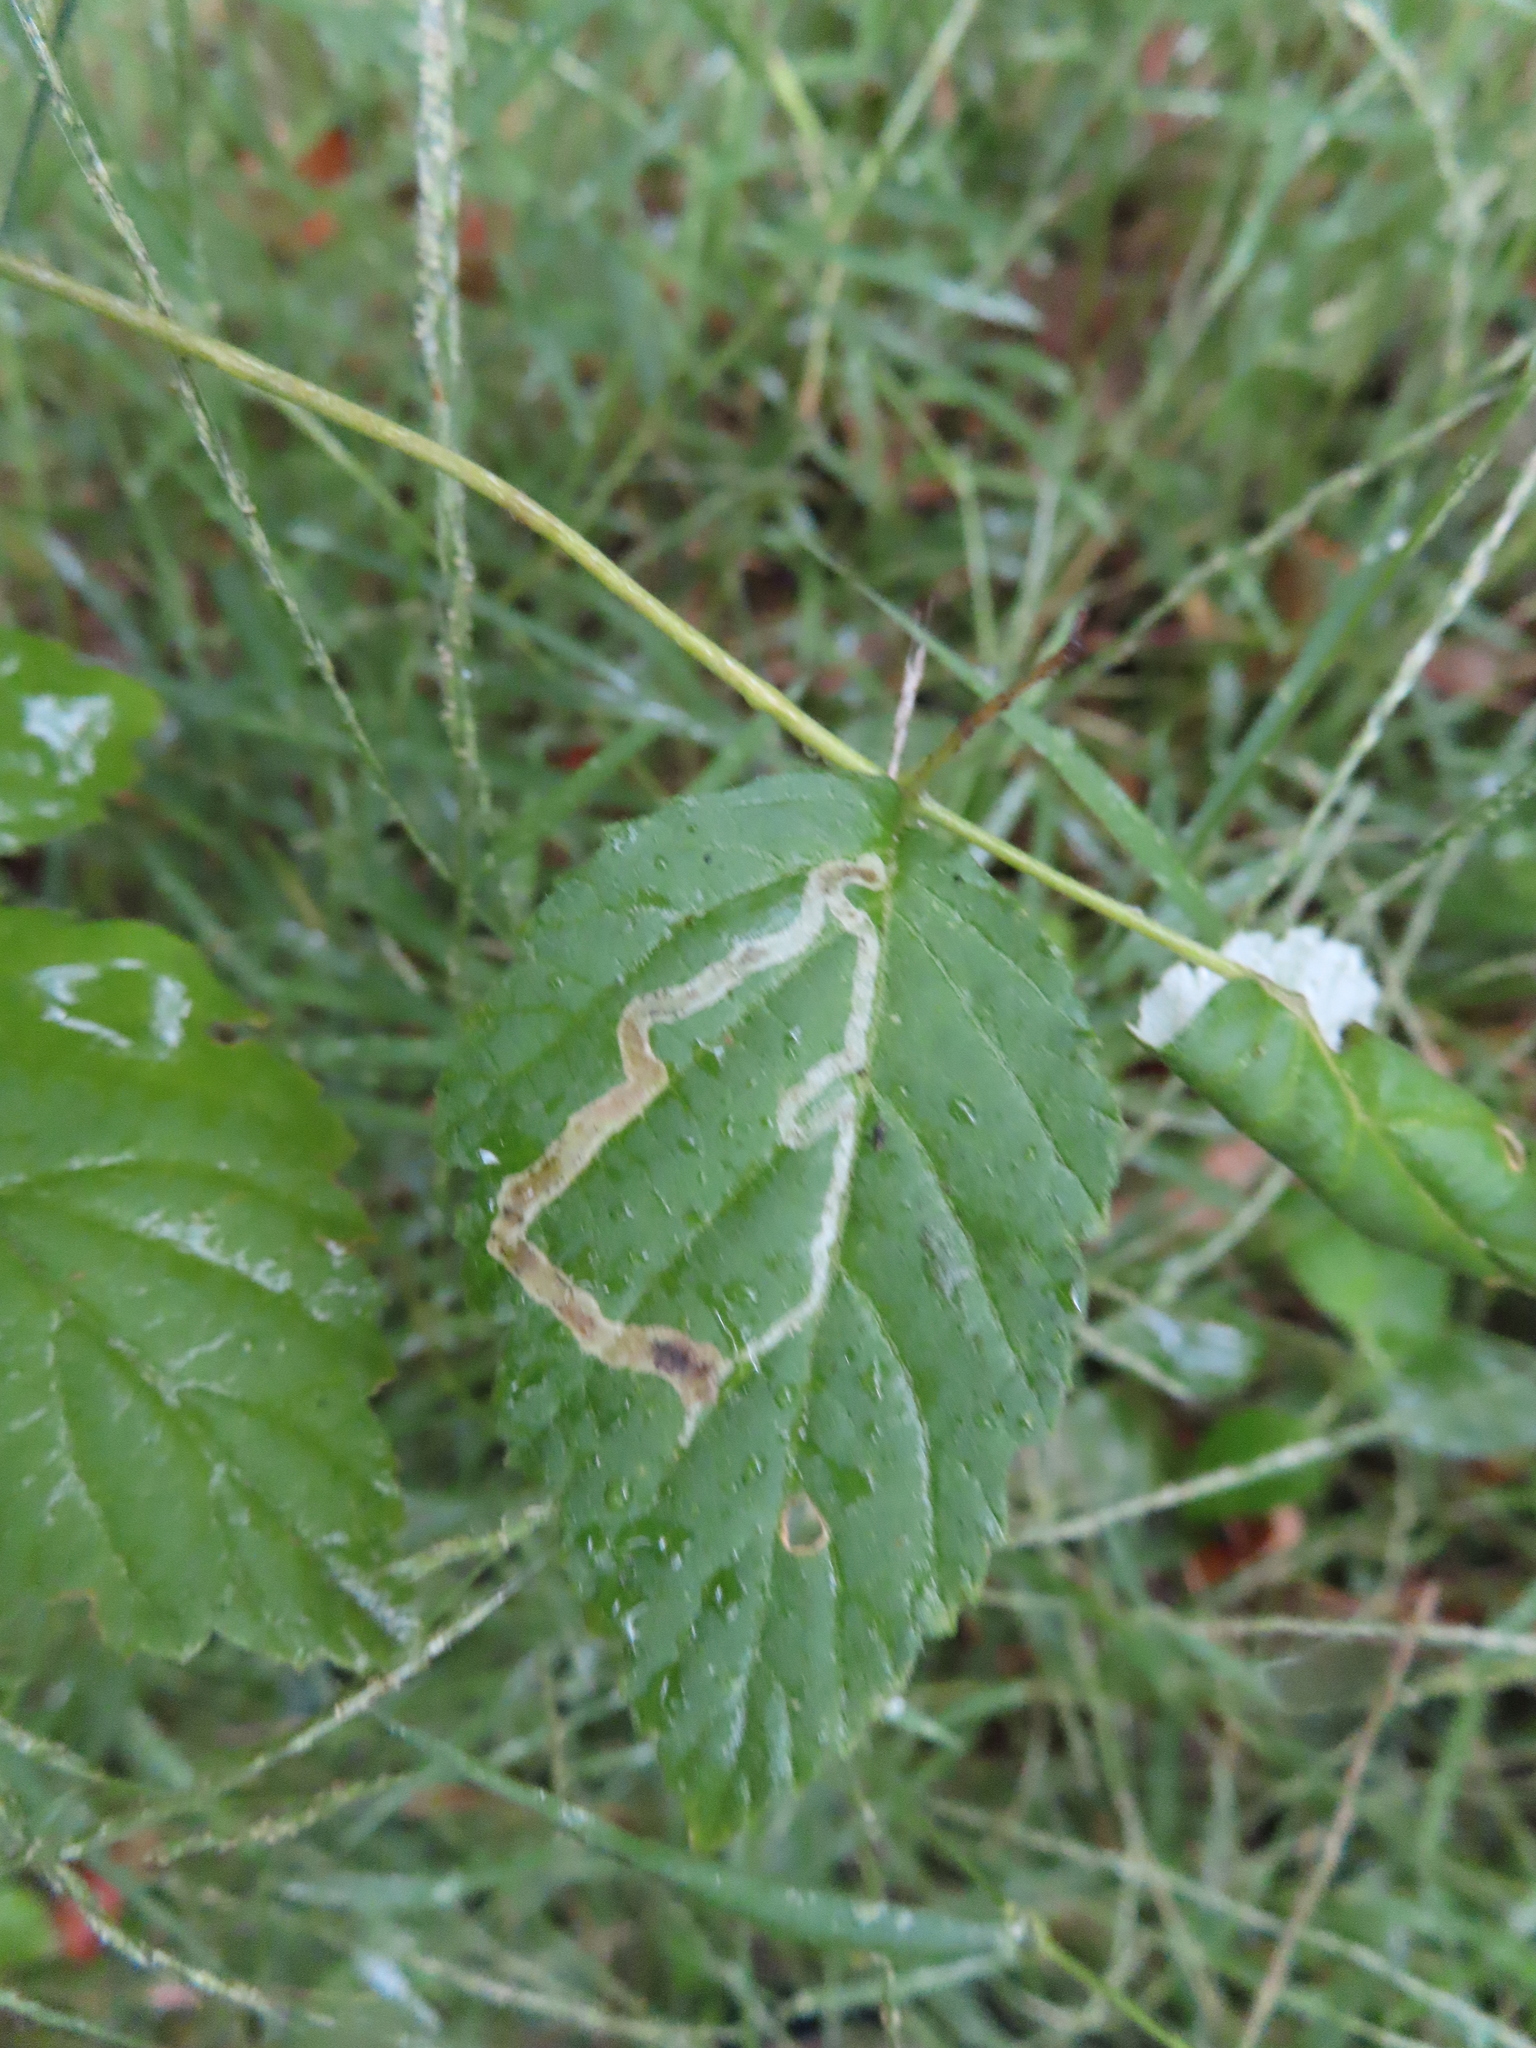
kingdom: Animalia
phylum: Arthropoda
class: Insecta
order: Diptera
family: Agromyzidae
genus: Agromyza
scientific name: Agromyza vockerothi
